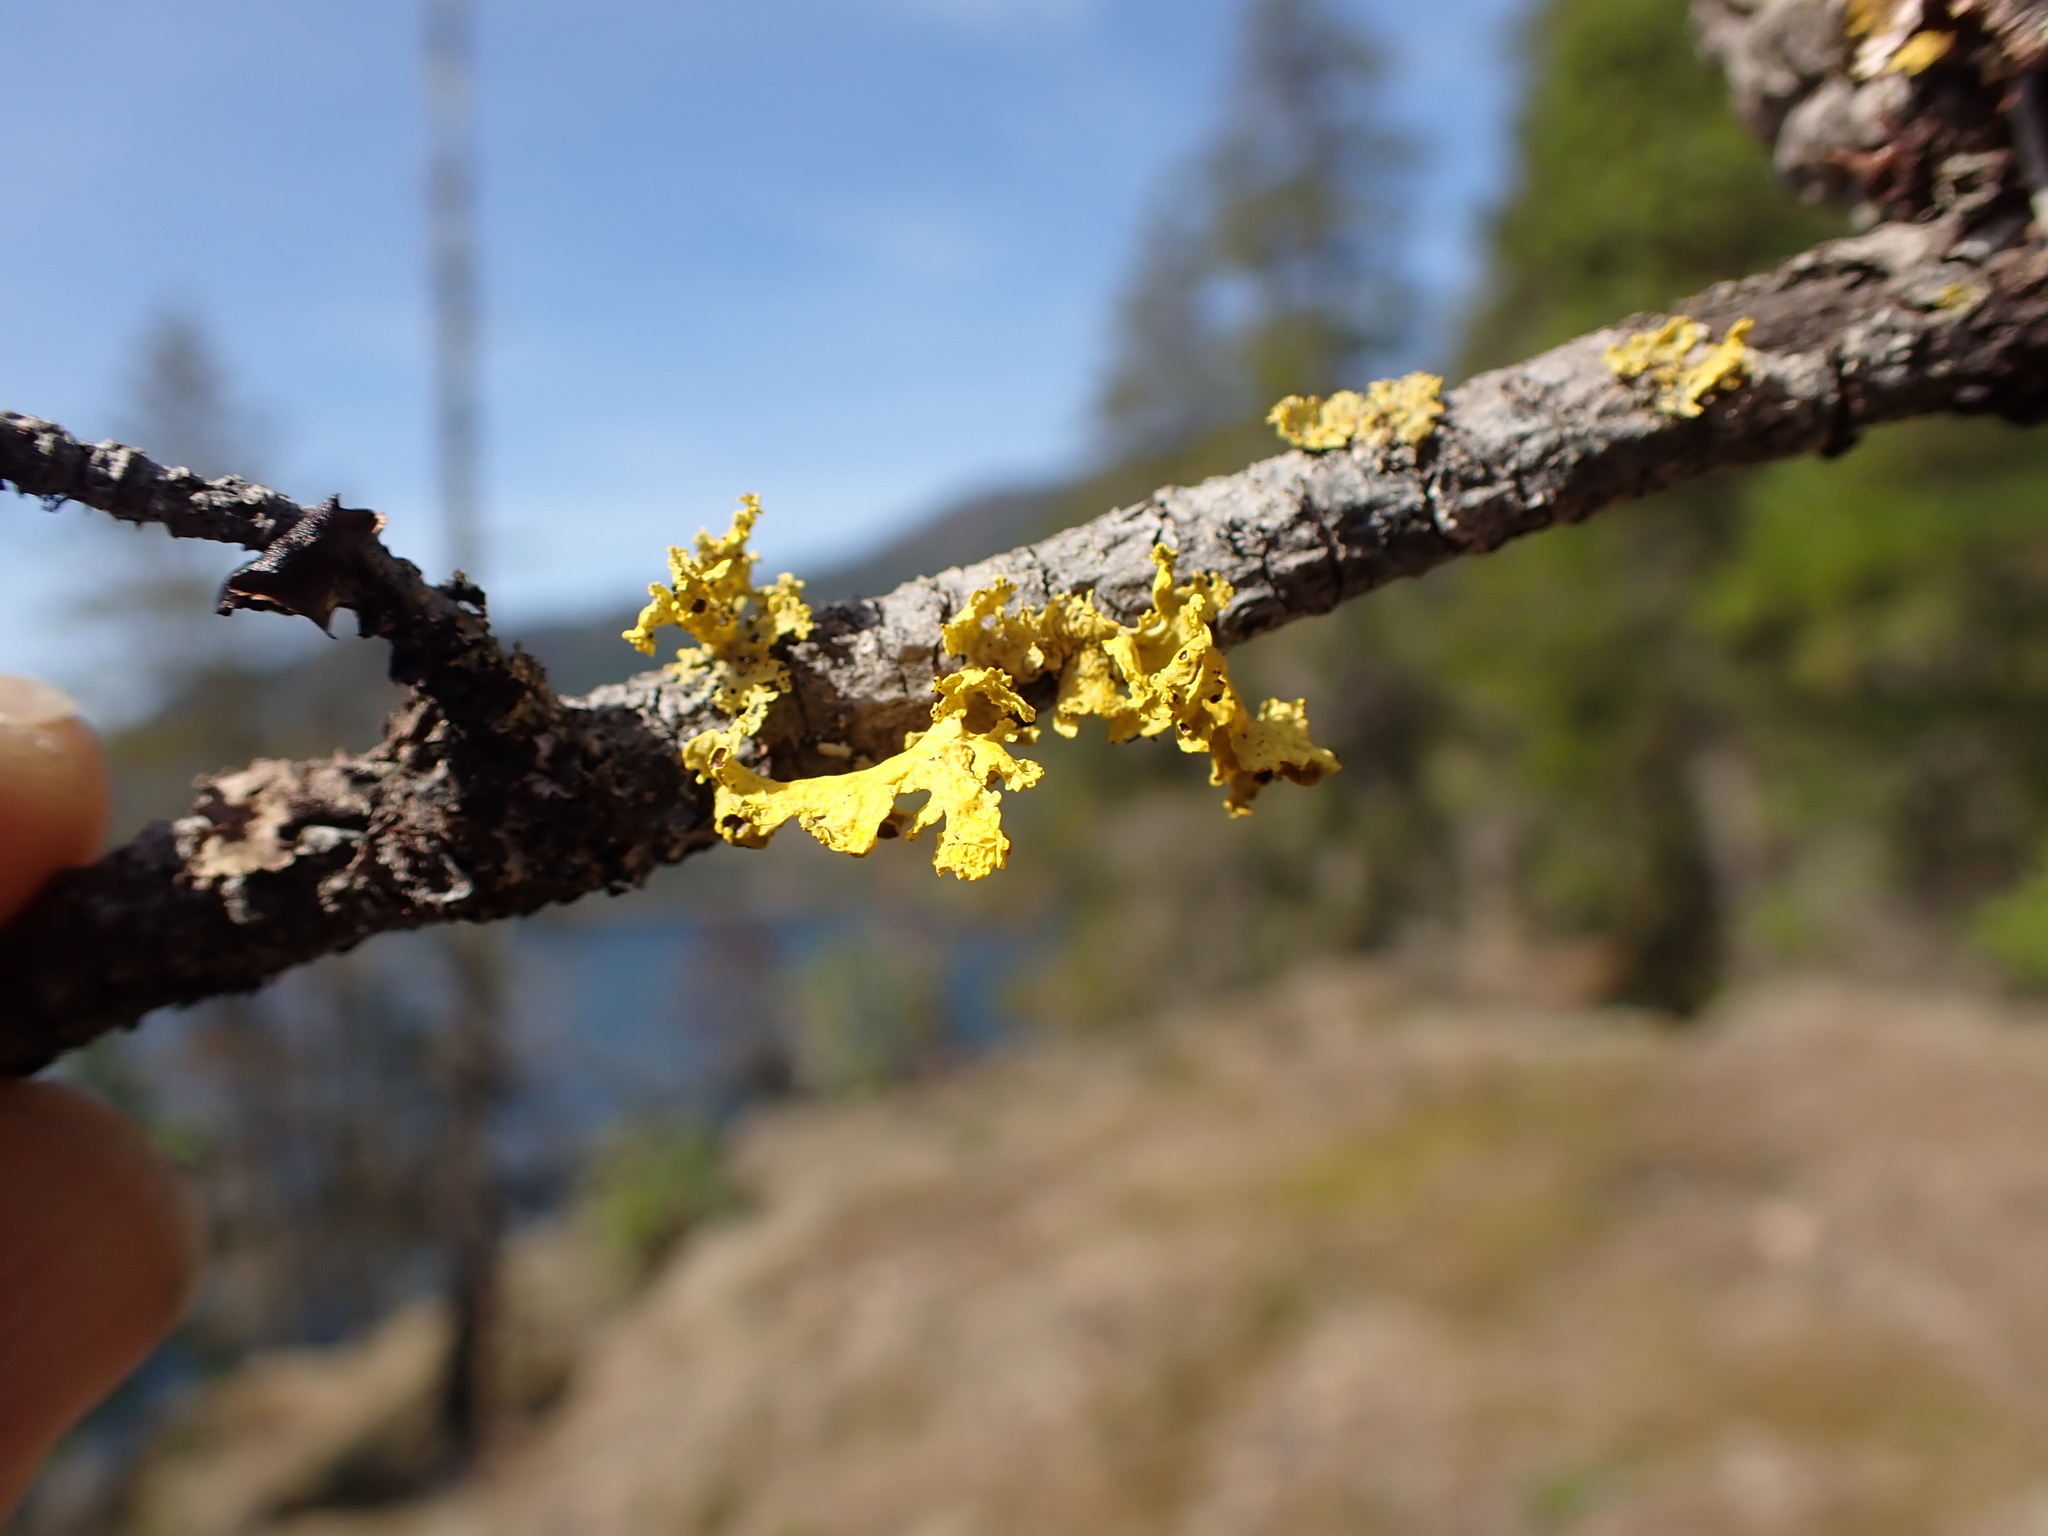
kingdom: Fungi
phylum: Ascomycota
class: Lecanoromycetes
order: Lecanorales
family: Parmeliaceae
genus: Vulpicida
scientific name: Vulpicida canadensis
